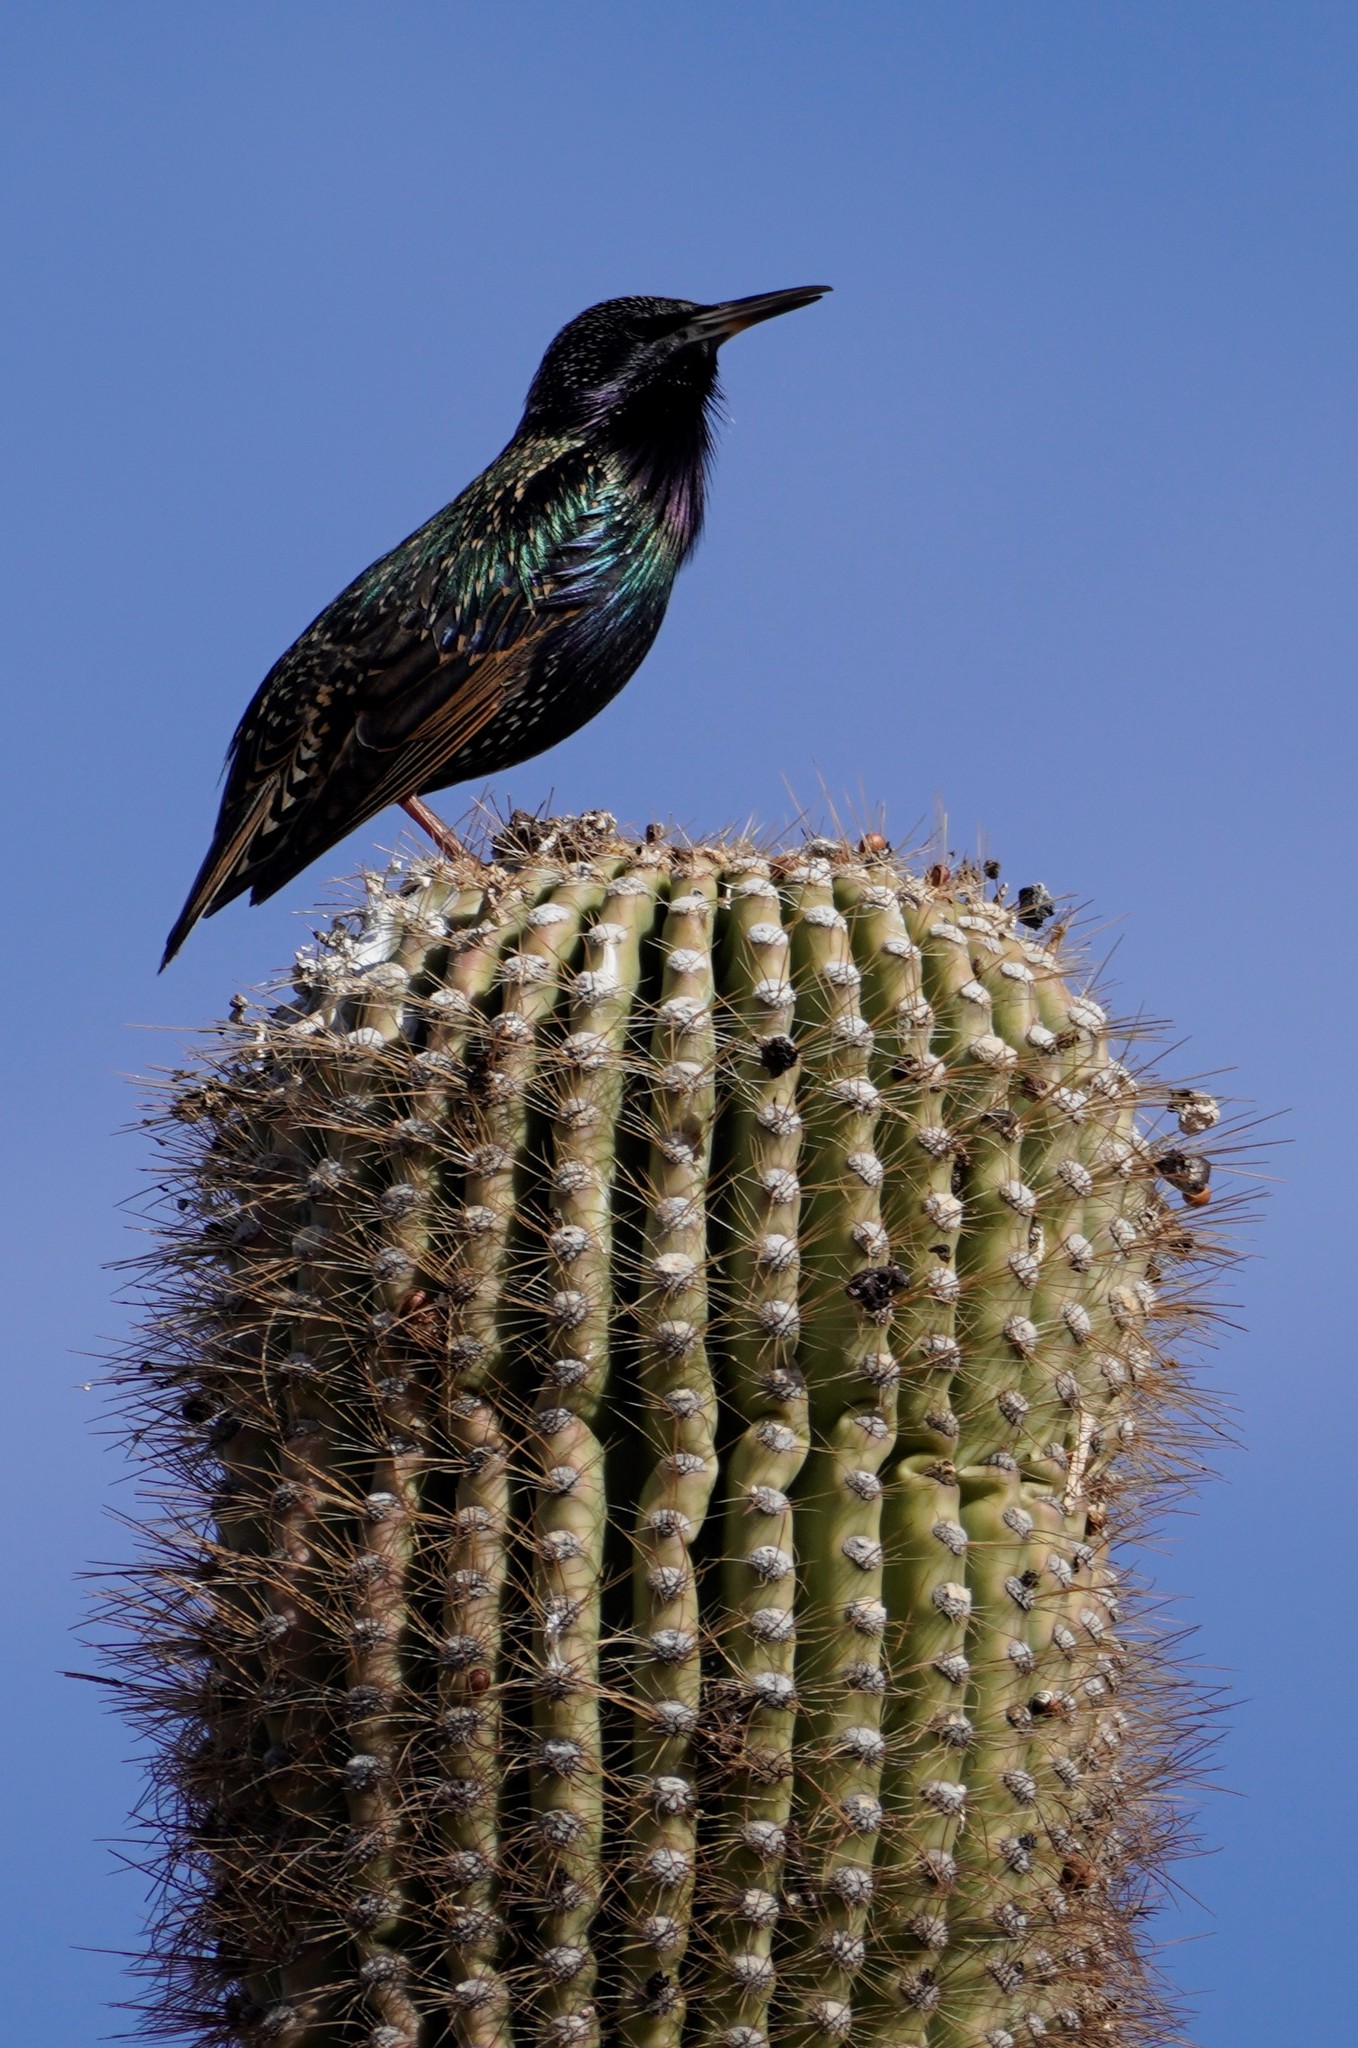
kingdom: Animalia
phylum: Chordata
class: Aves
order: Passeriformes
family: Sturnidae
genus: Sturnus
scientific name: Sturnus vulgaris
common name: Common starling
